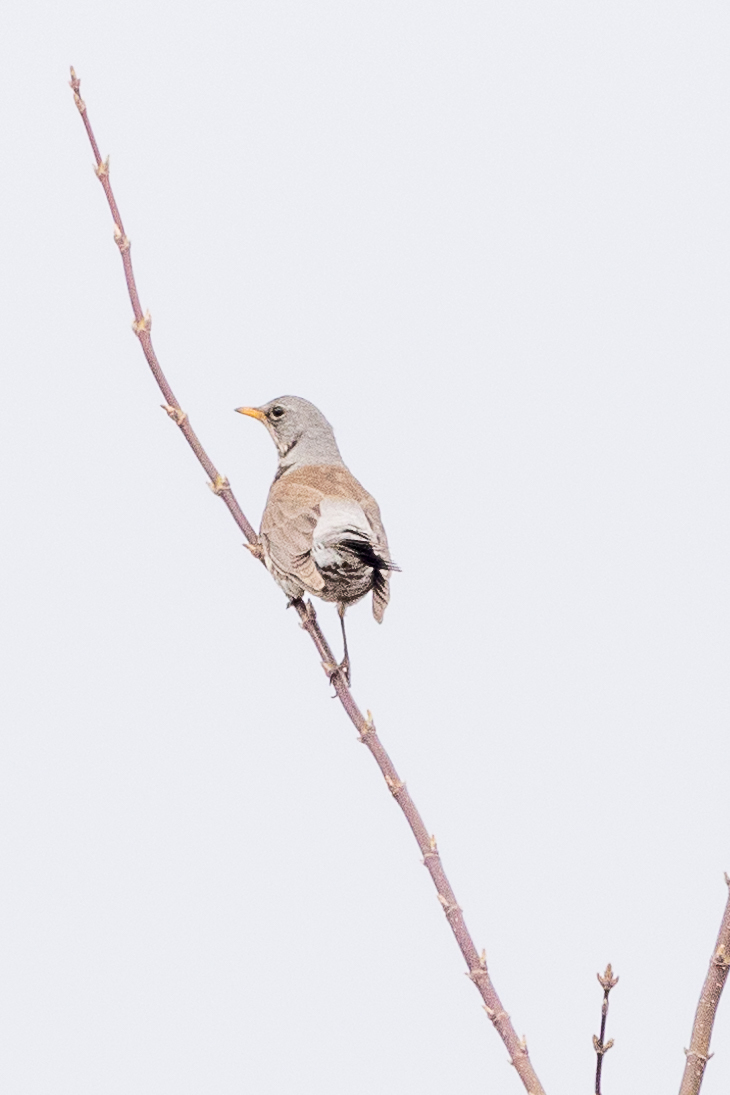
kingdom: Animalia
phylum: Chordata
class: Aves
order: Passeriformes
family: Turdidae
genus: Turdus
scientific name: Turdus pilaris
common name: Fieldfare
